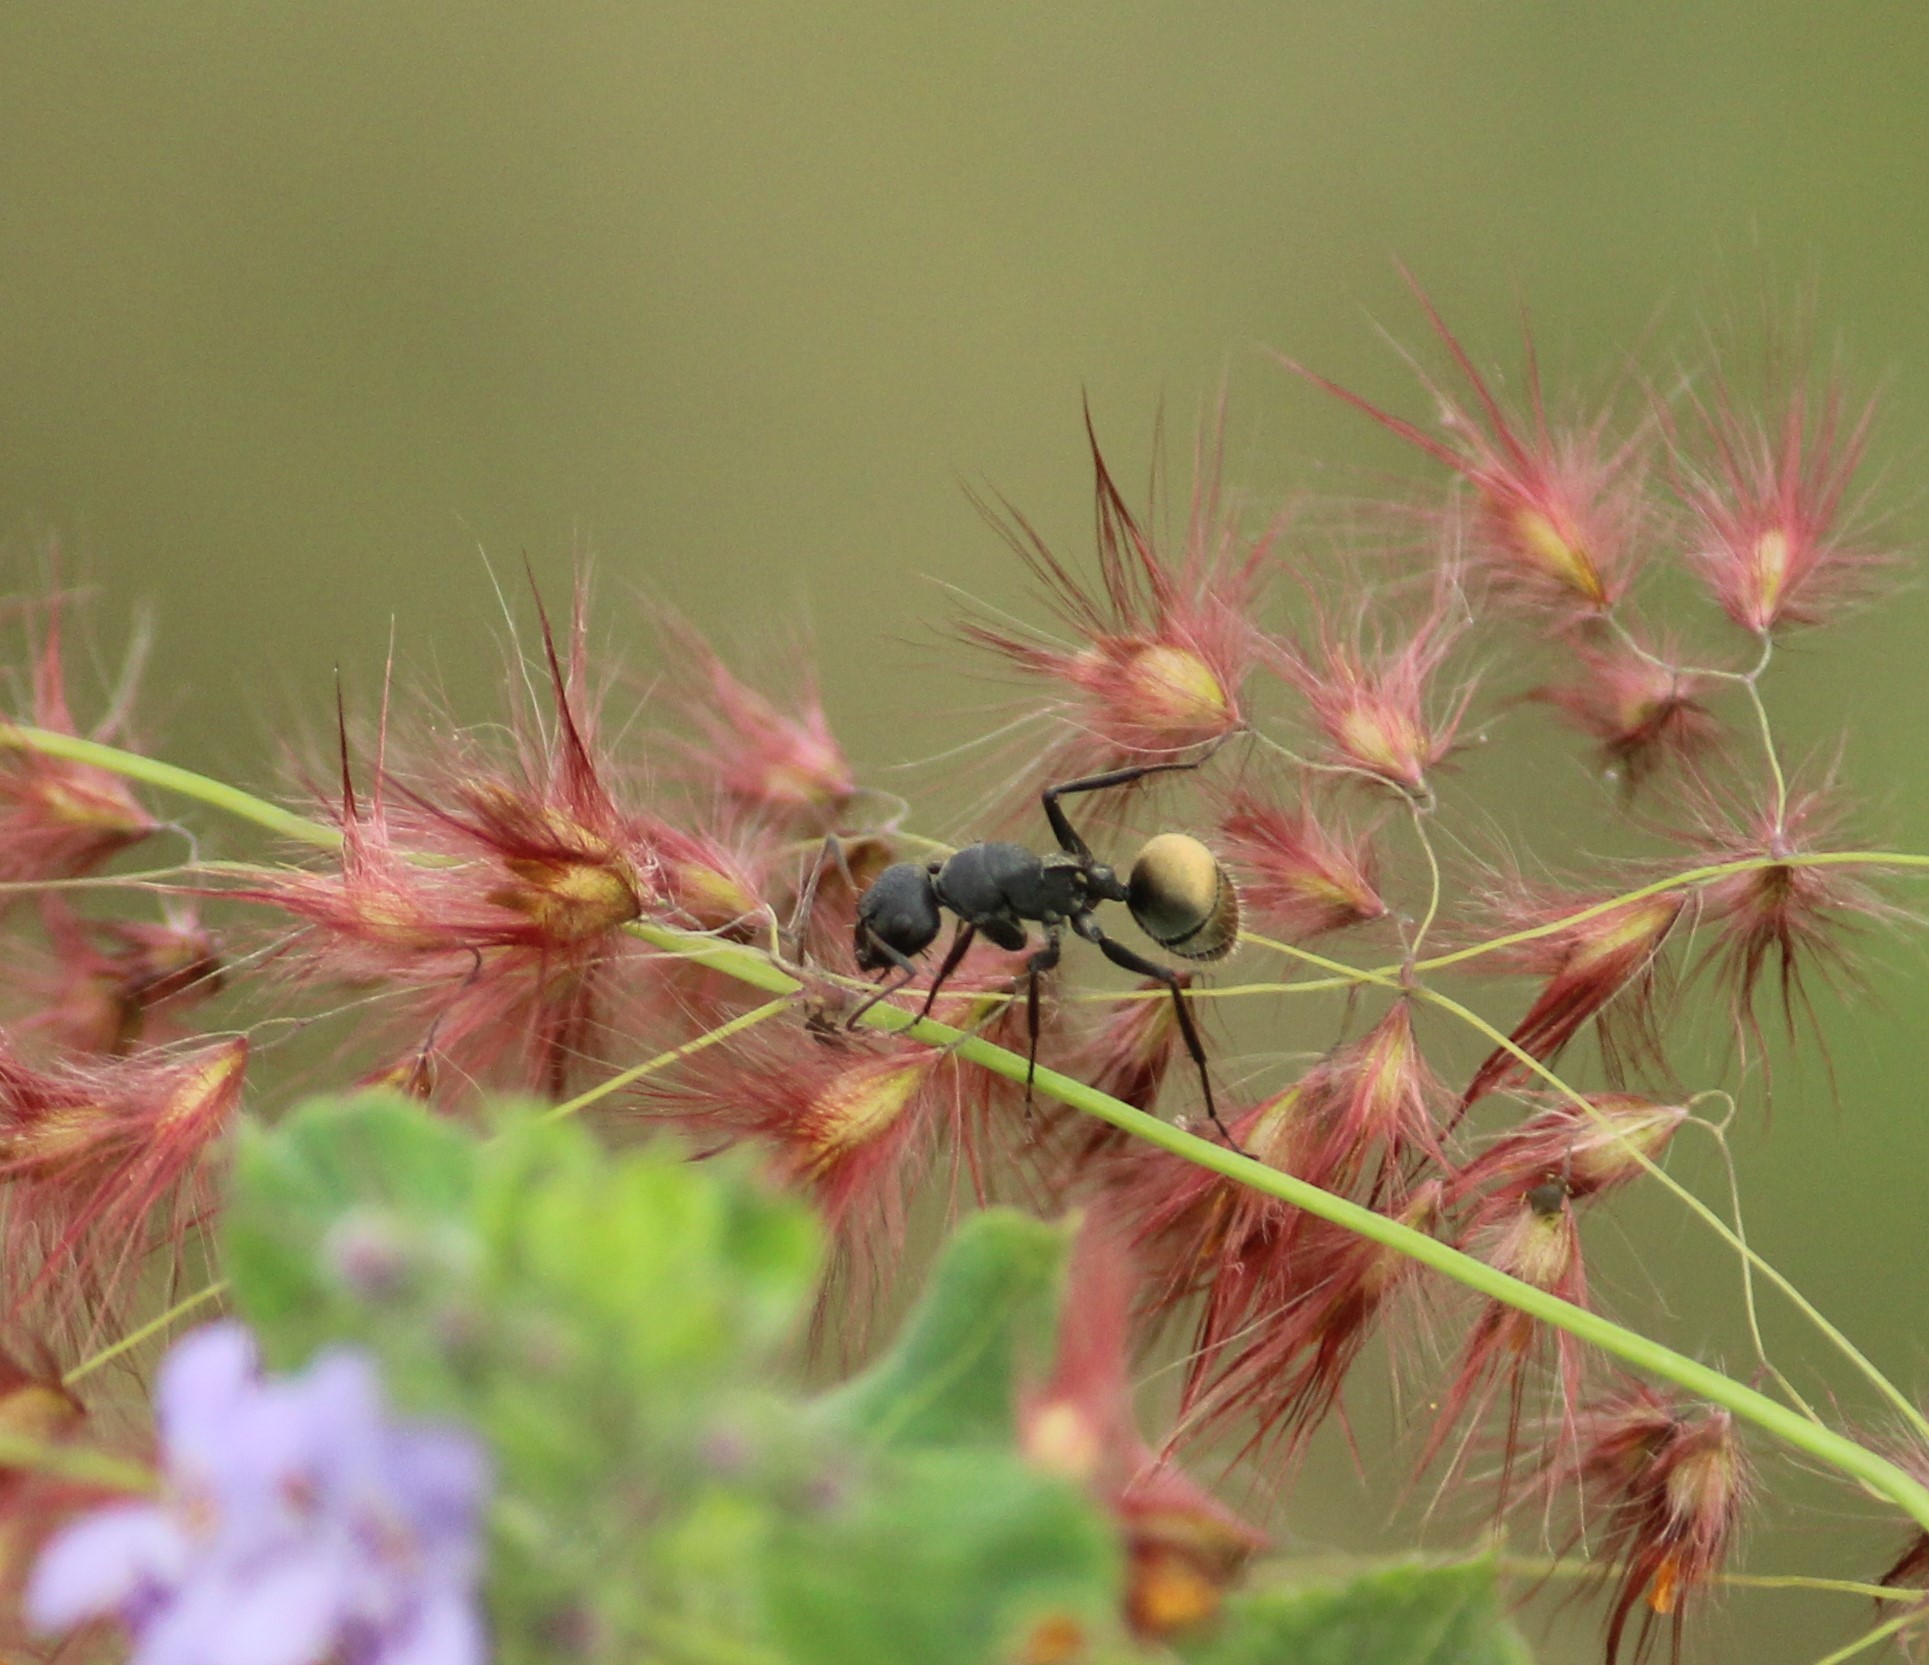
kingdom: Animalia
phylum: Arthropoda
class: Insecta
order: Hymenoptera
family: Formicidae
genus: Camponotus
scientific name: Camponotus sericeus
